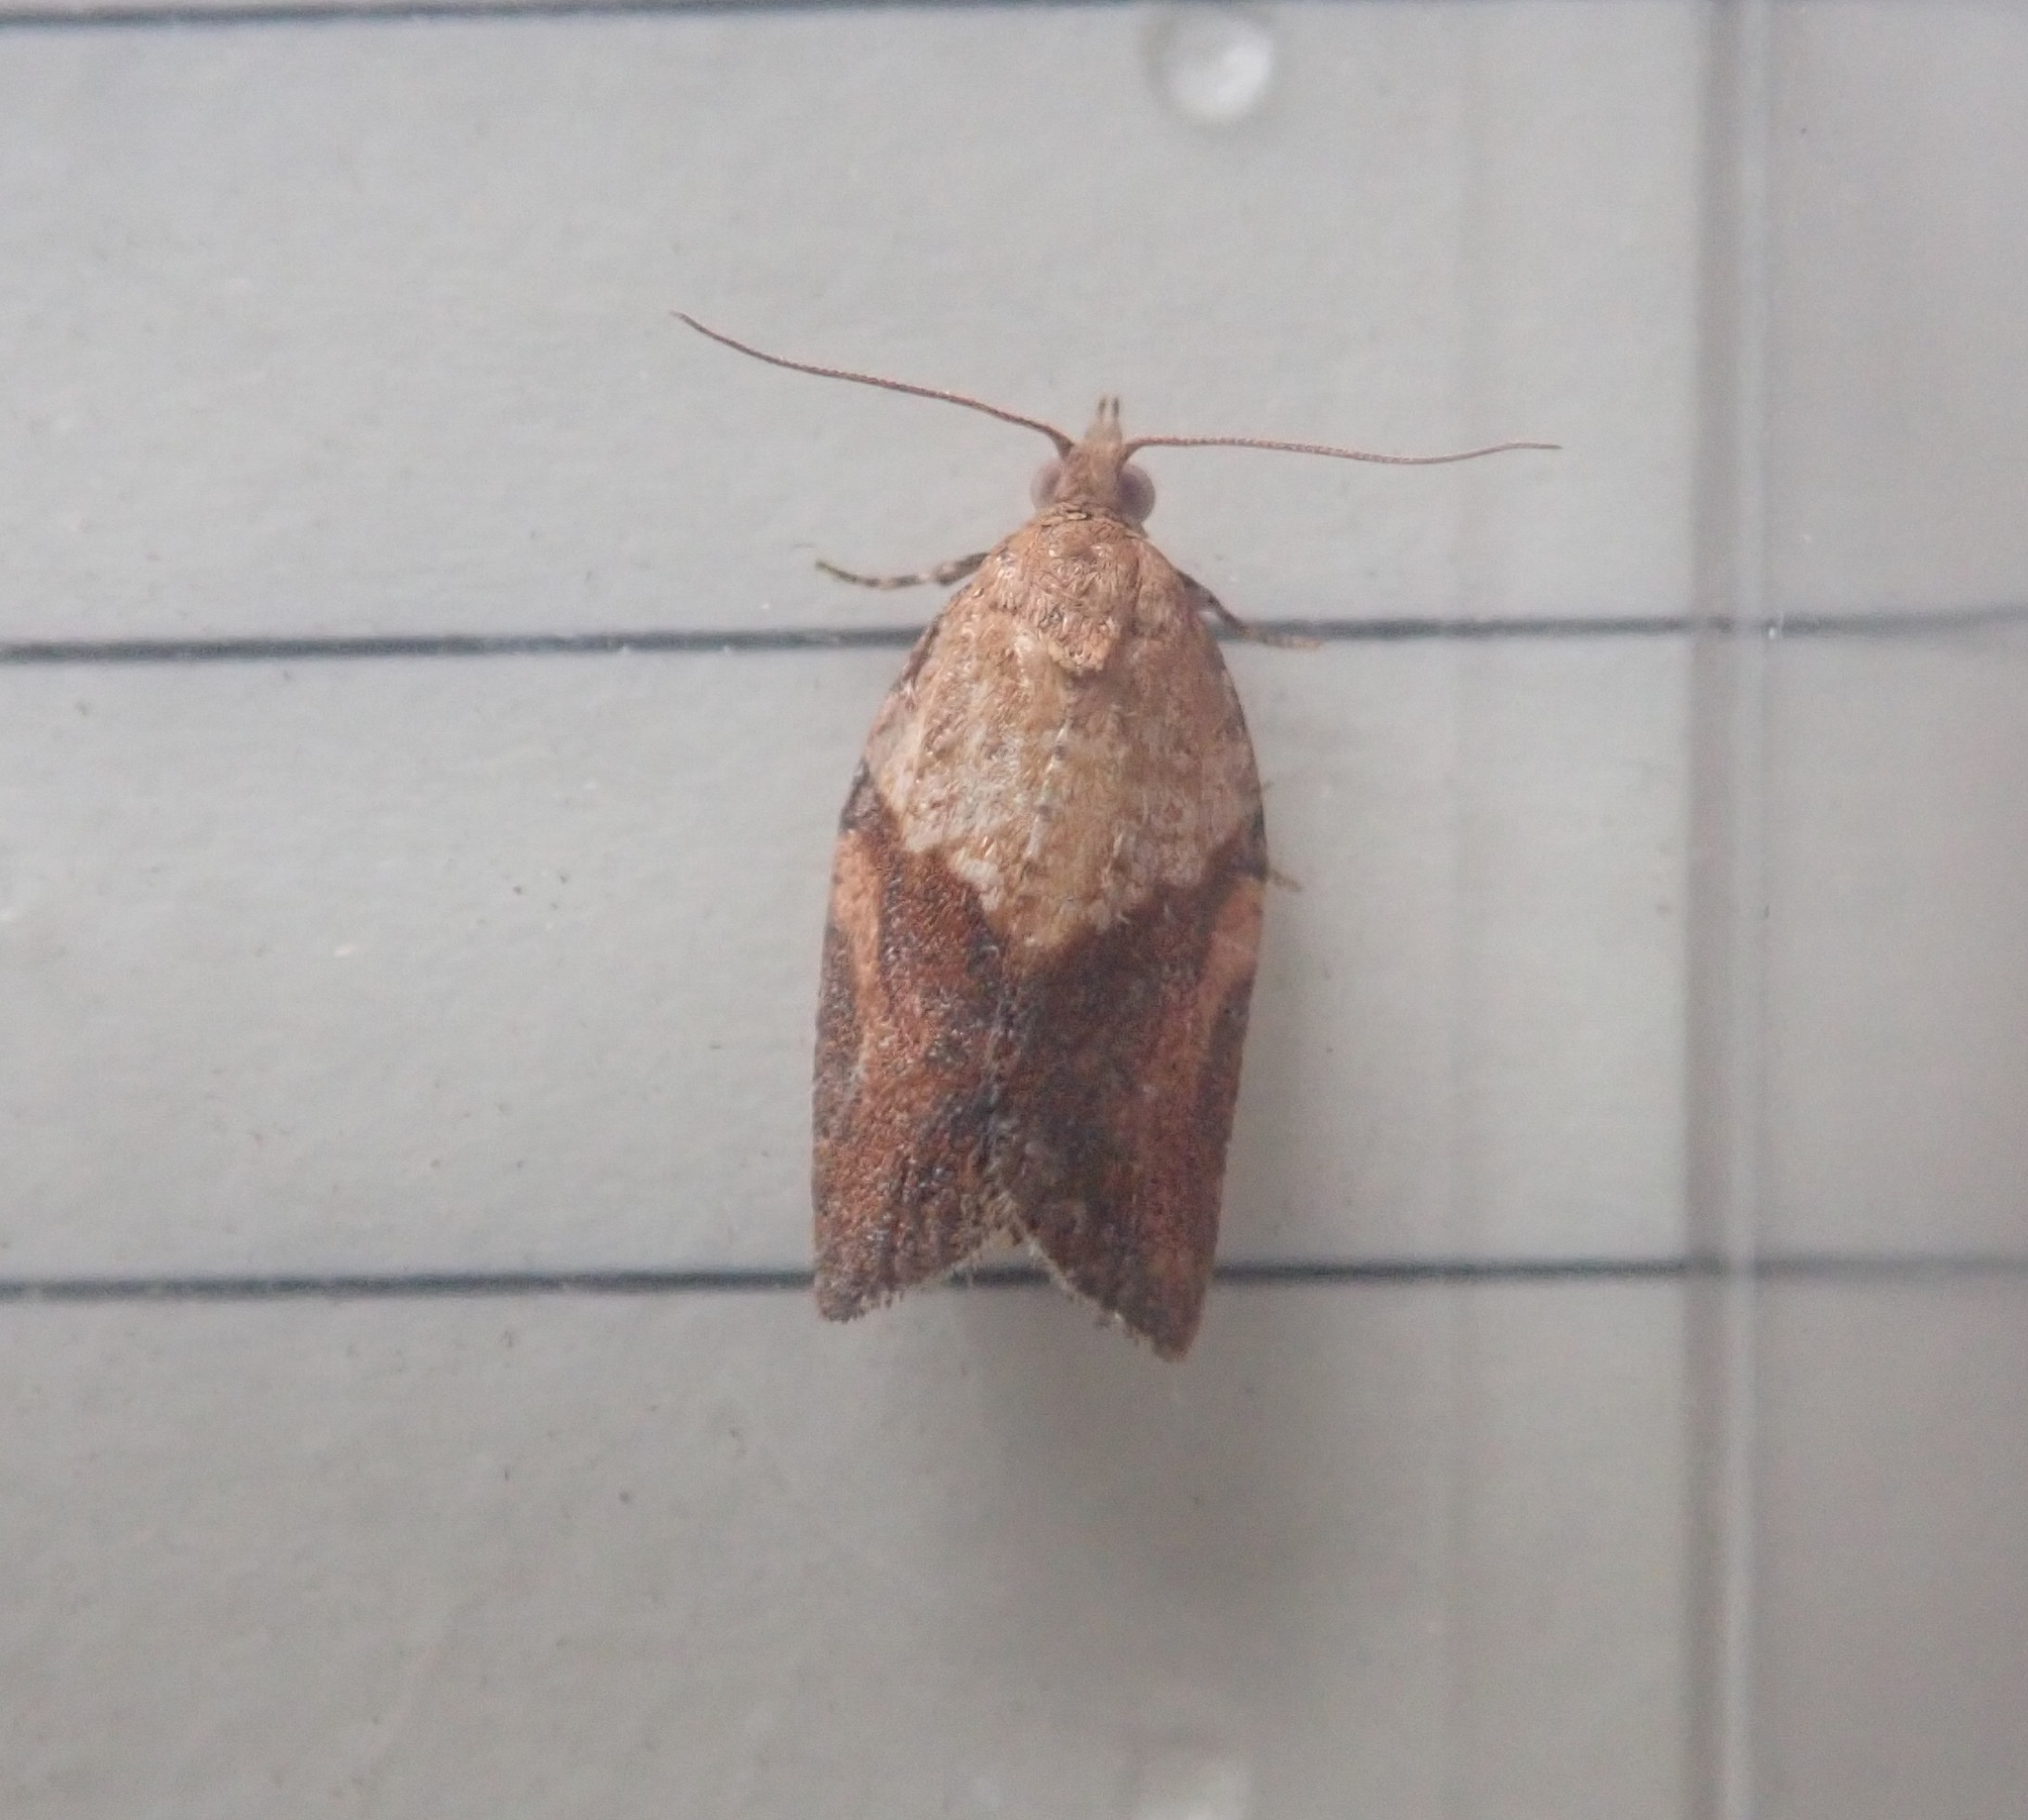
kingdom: Animalia
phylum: Arthropoda
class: Insecta
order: Lepidoptera
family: Tortricidae
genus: Epiphyas
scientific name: Epiphyas postvittana
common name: Light brown apple moth
